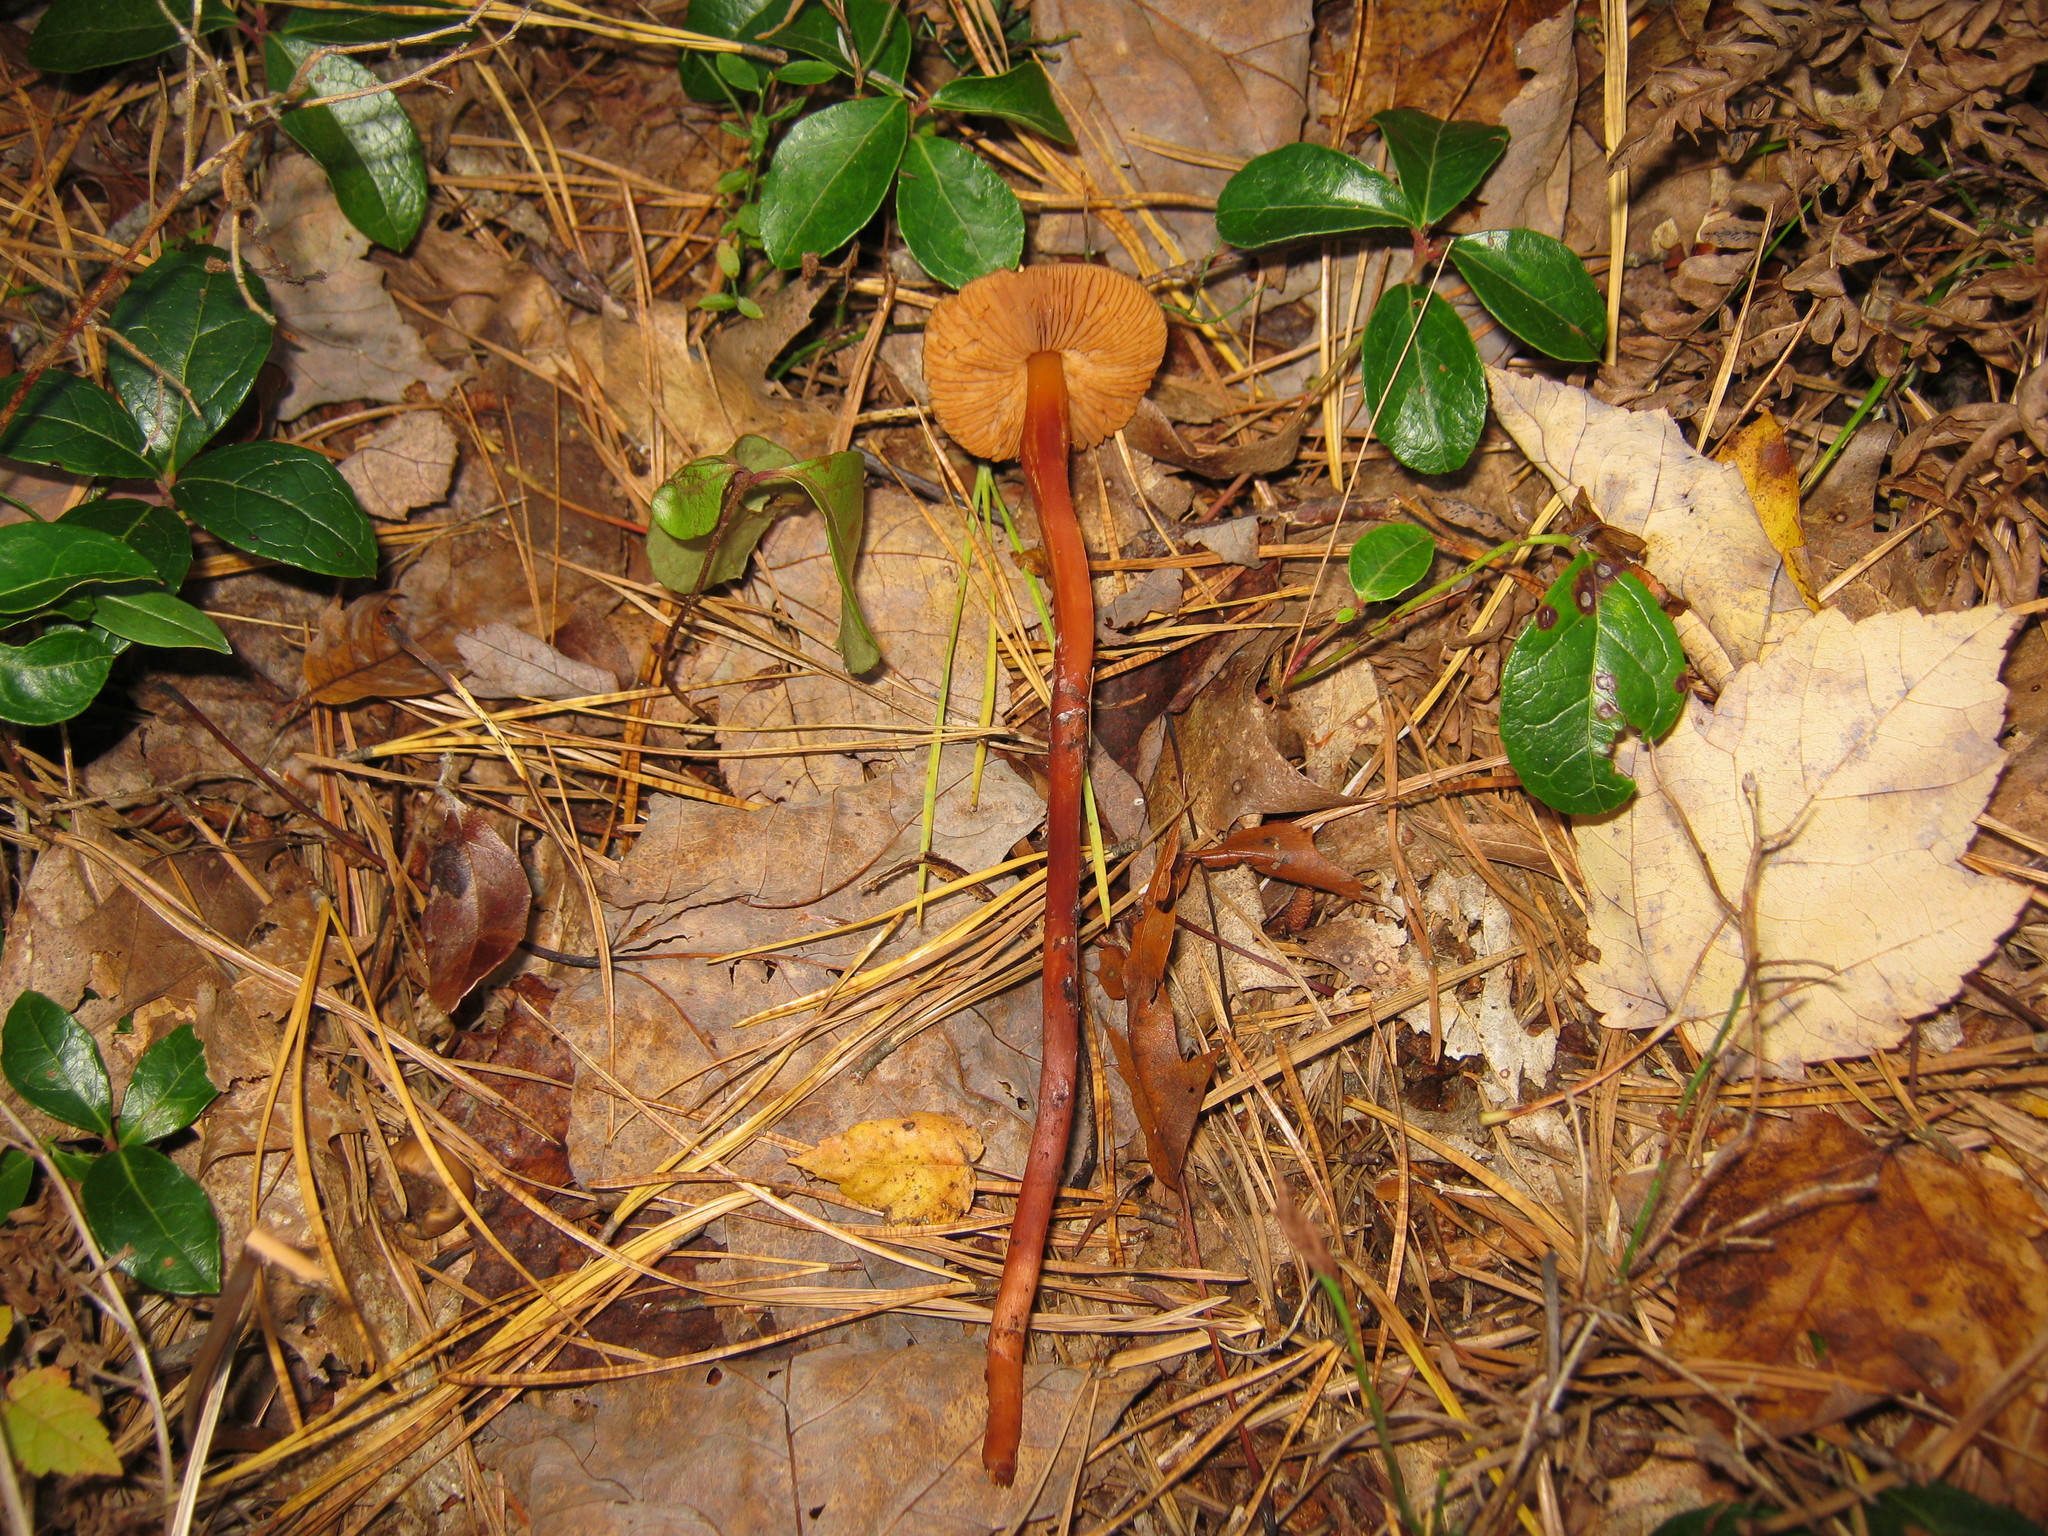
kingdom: Fungi
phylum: Basidiomycota
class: Agaricomycetes
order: Agaricales
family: Hymenogastraceae
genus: Phaeocollybia
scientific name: Phaeocollybia christinae
